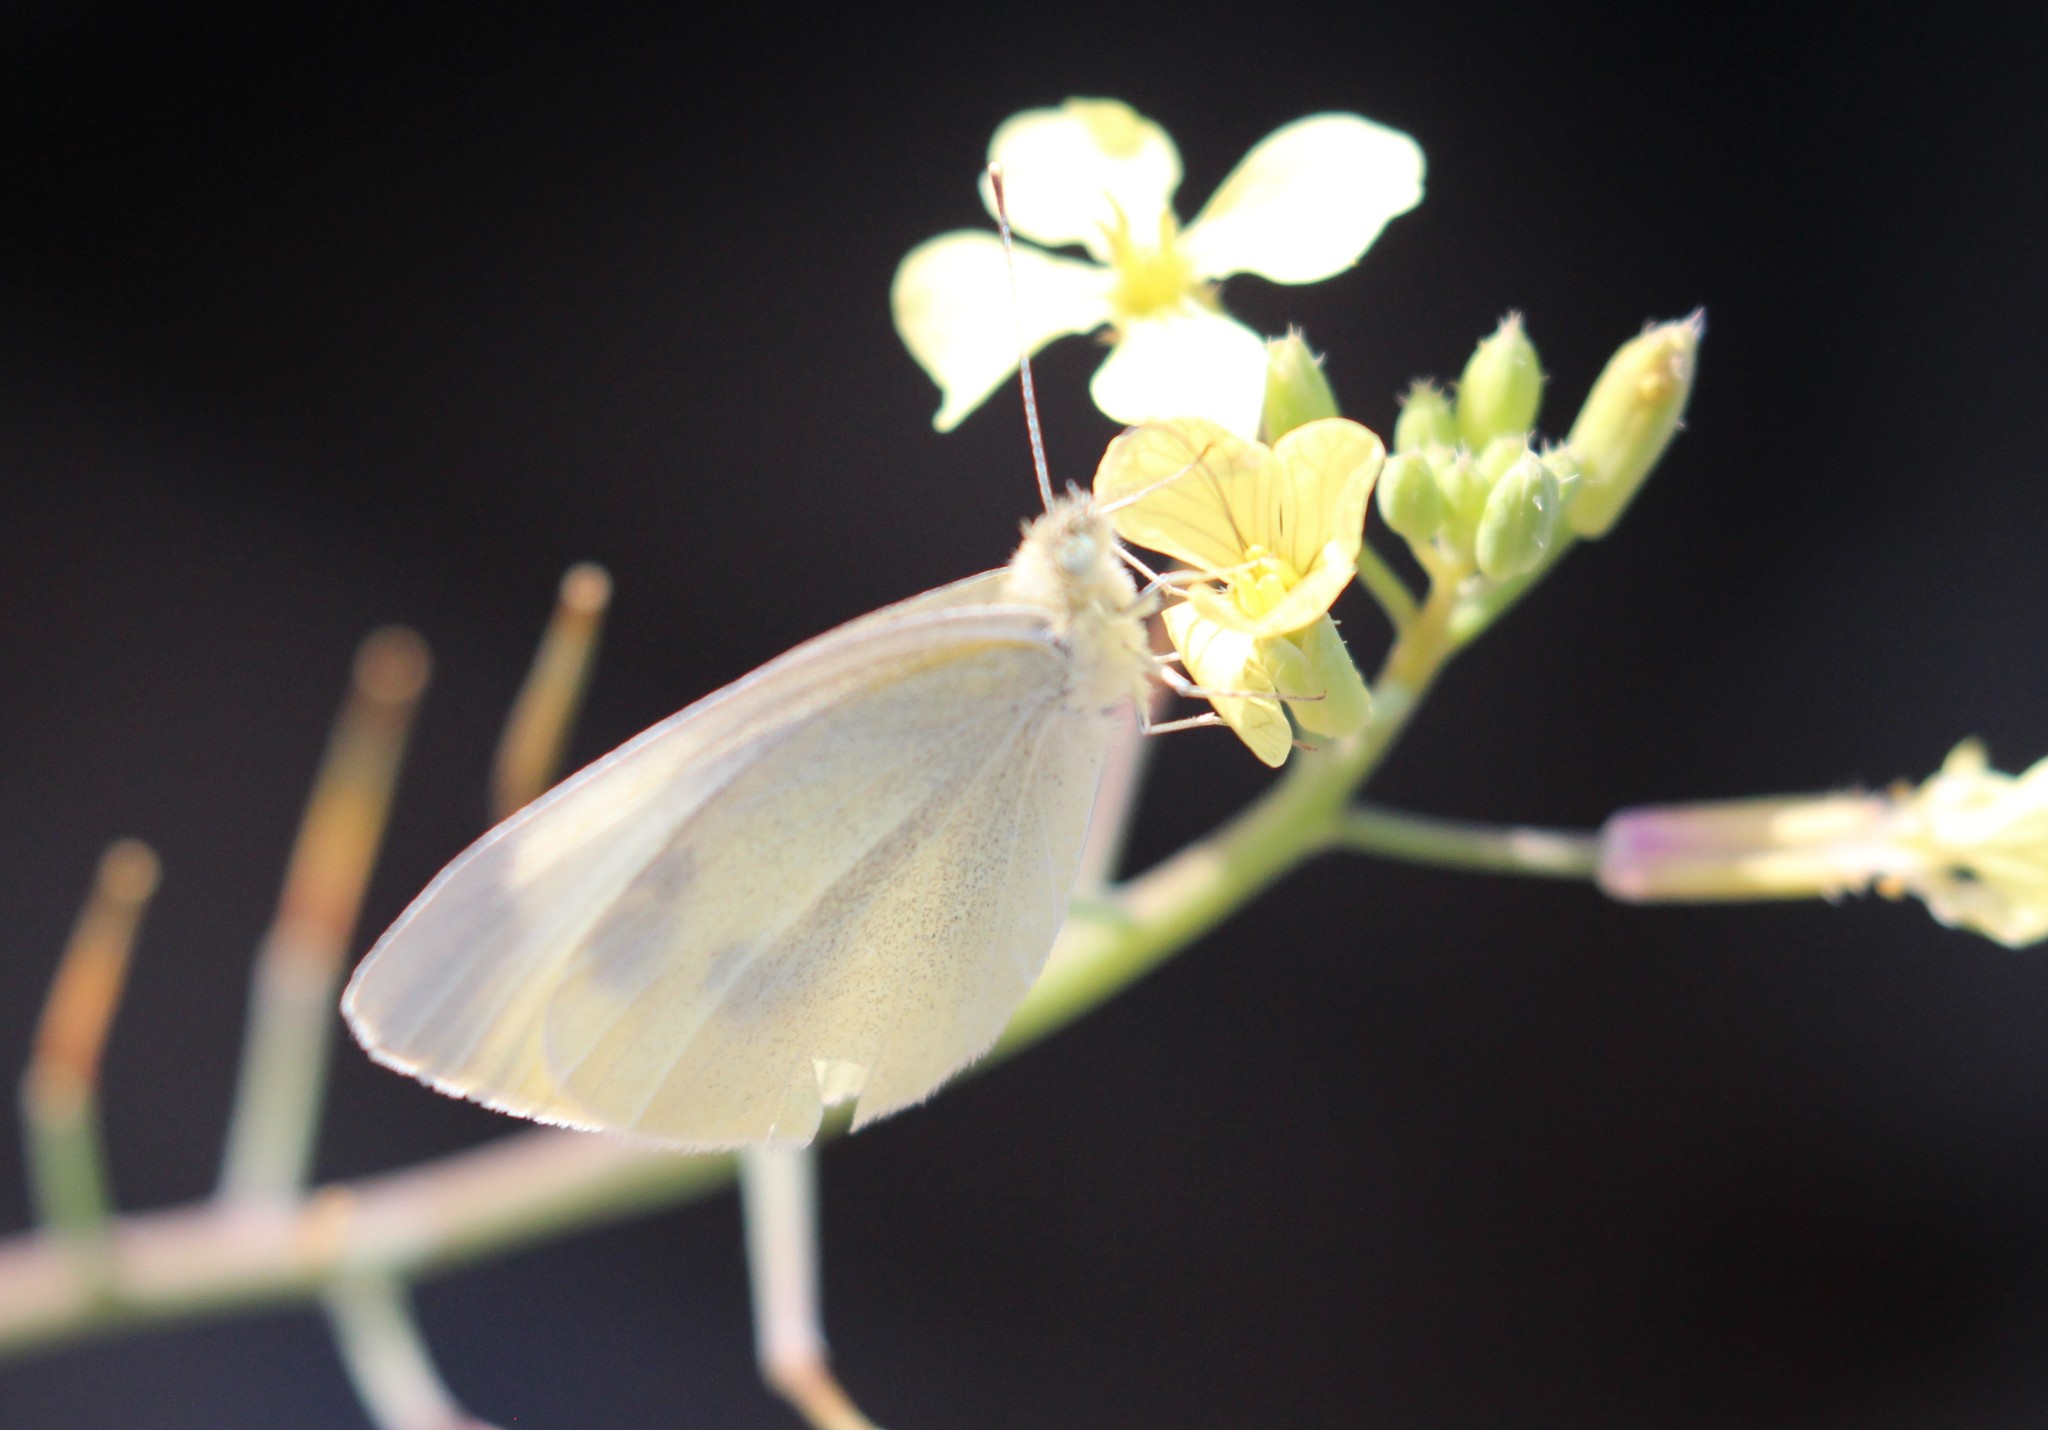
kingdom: Animalia
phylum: Arthropoda
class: Insecta
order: Lepidoptera
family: Pieridae
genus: Pieris
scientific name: Pieris rapae
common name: Small white
